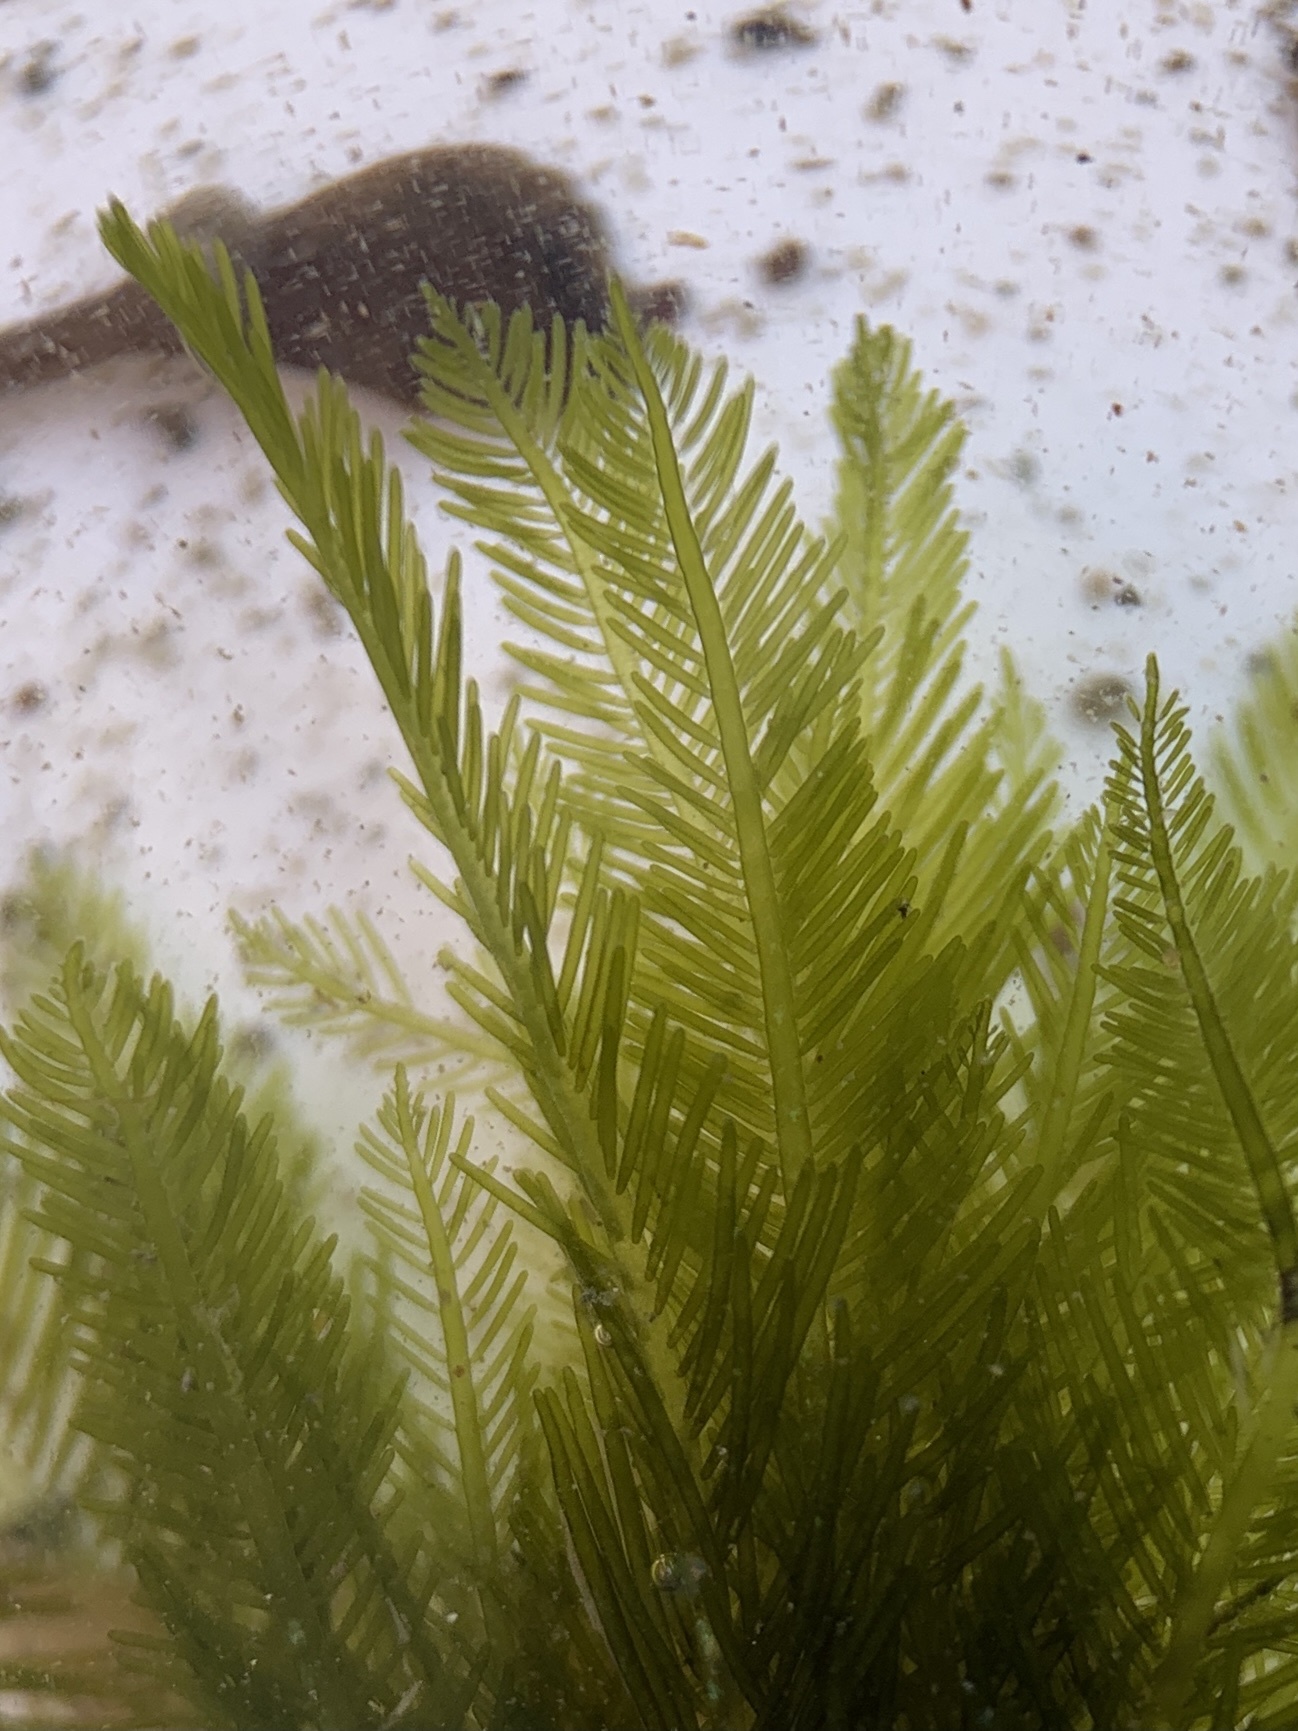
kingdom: Plantae
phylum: Chlorophyta
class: Ulvophyceae
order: Bryopsidales
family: Bryopsidaceae
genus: Bryopsis
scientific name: Bryopsis plumosa
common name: Hen pen
